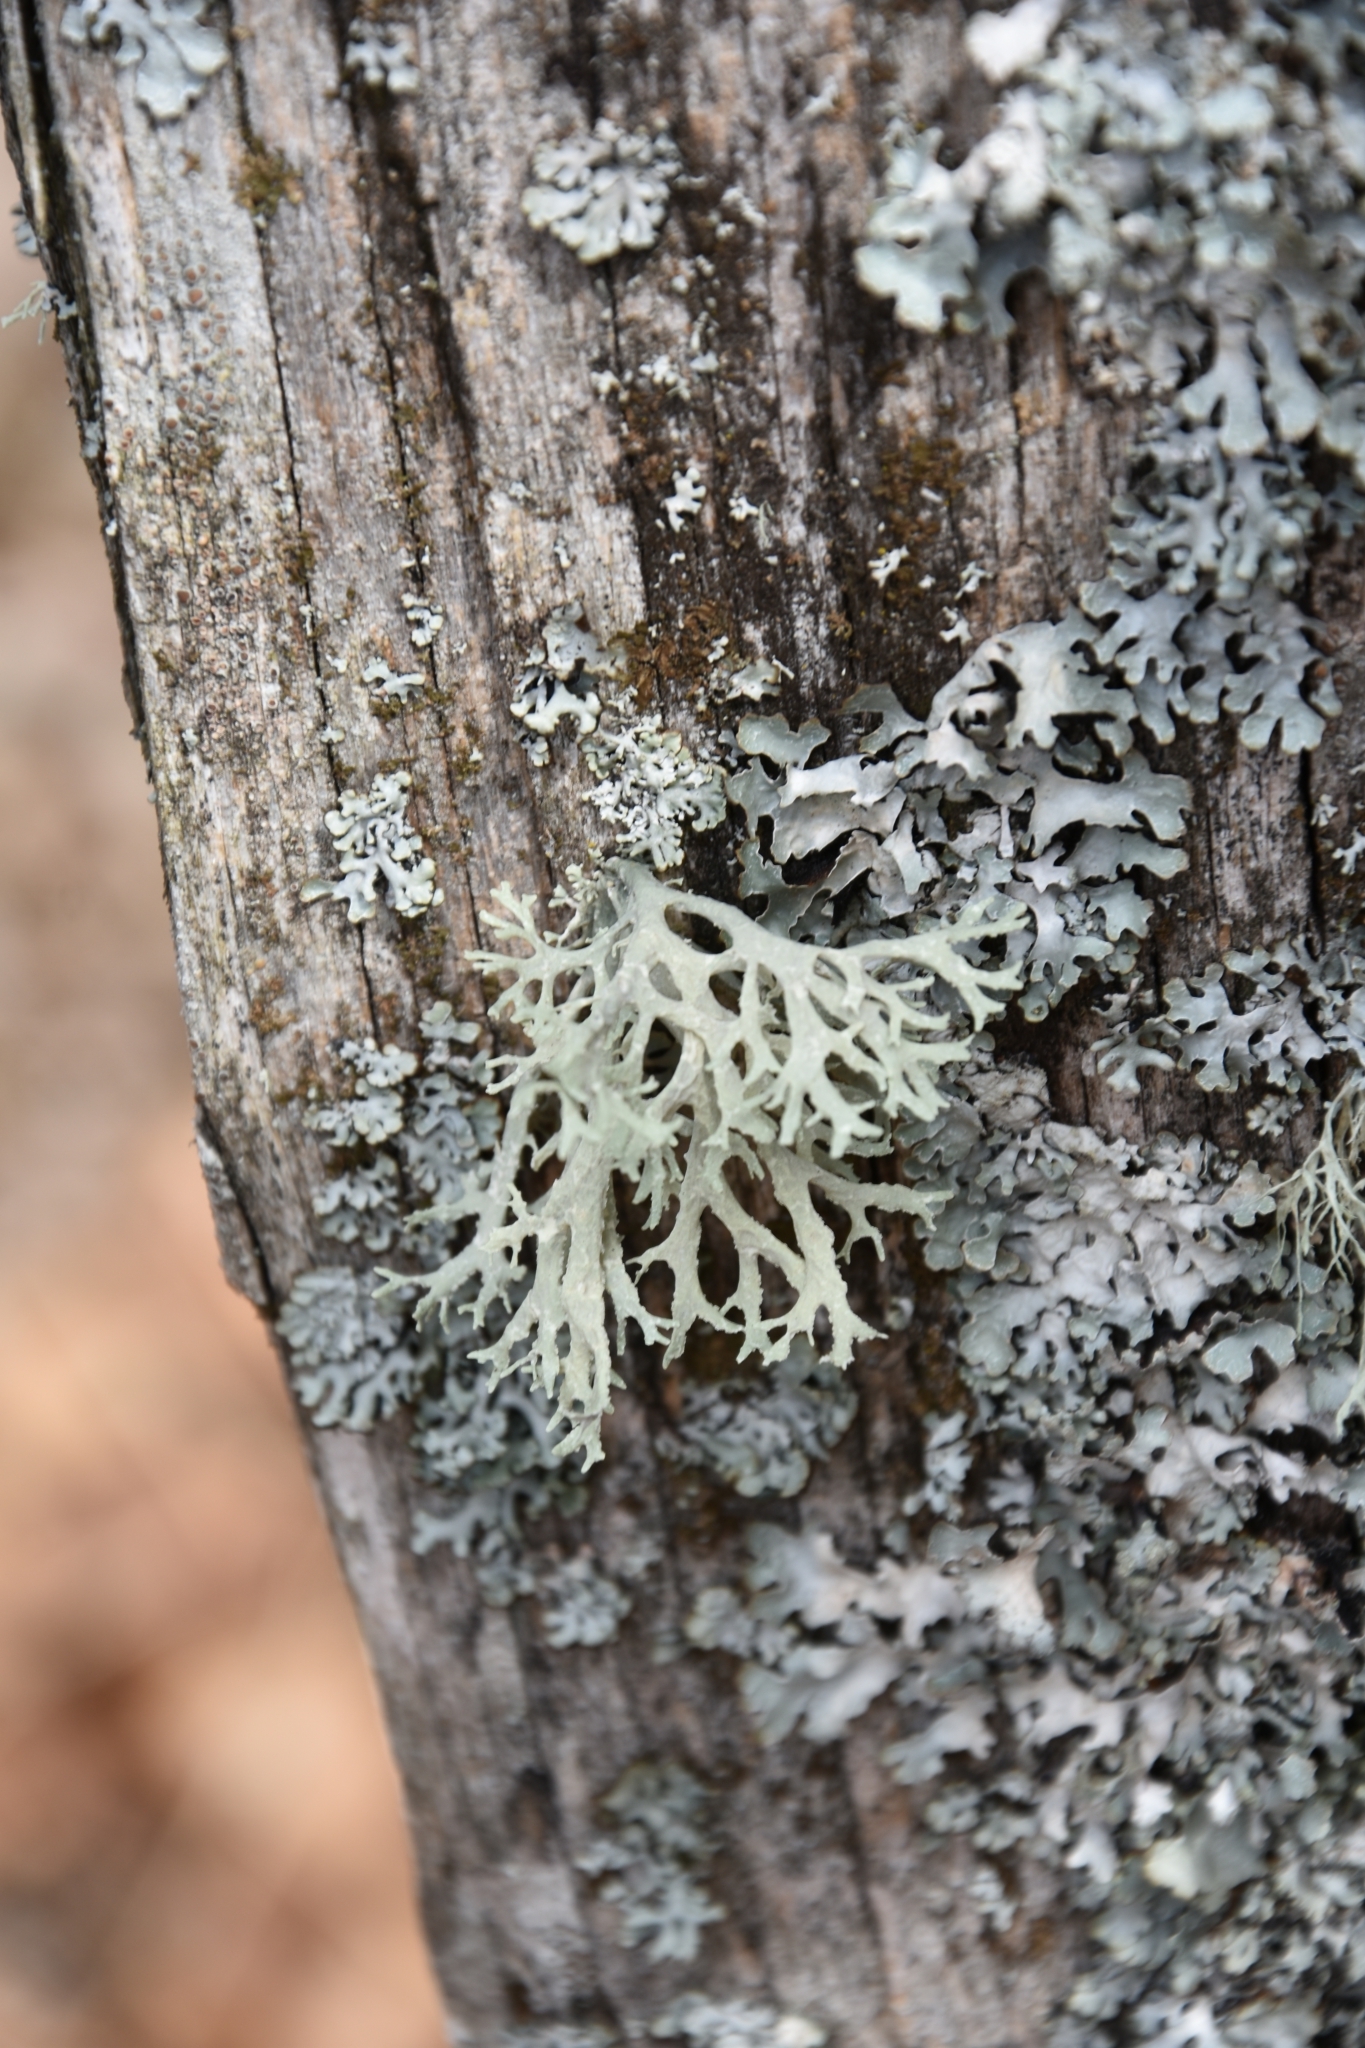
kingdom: Fungi
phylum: Ascomycota
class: Lecanoromycetes
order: Lecanorales
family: Parmeliaceae
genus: Evernia
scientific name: Evernia prunastri
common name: Oak moss
